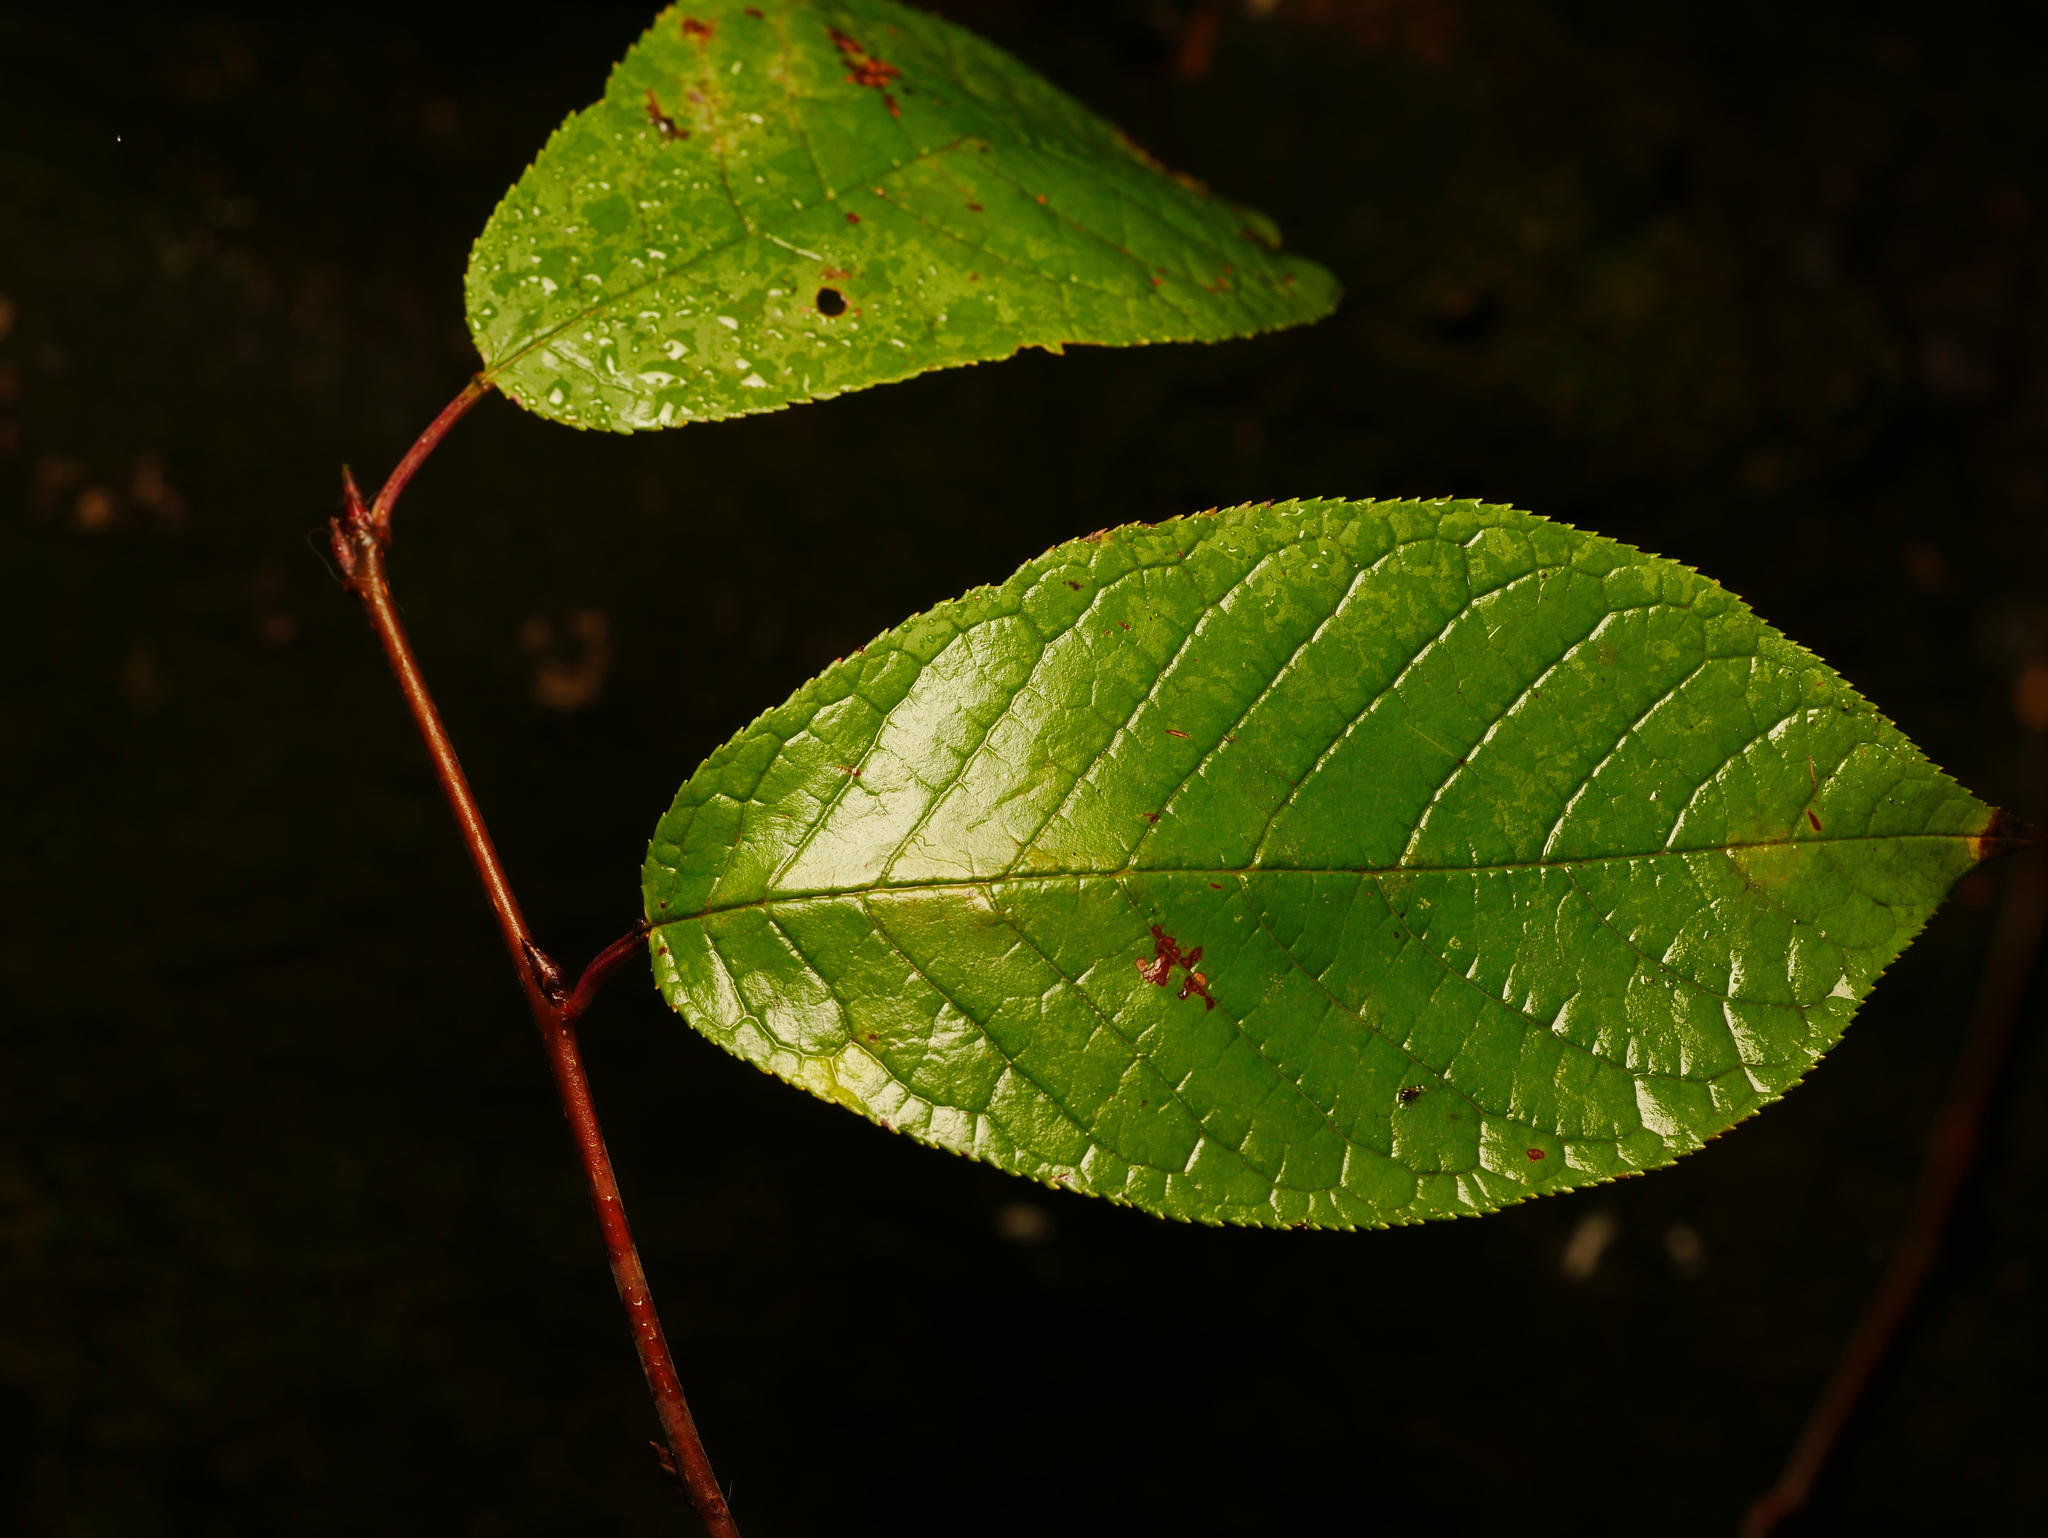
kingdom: Plantae
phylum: Tracheophyta
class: Magnoliopsida
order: Rosales
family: Rosaceae
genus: Prunus
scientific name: Prunus padus
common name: Bird cherry
